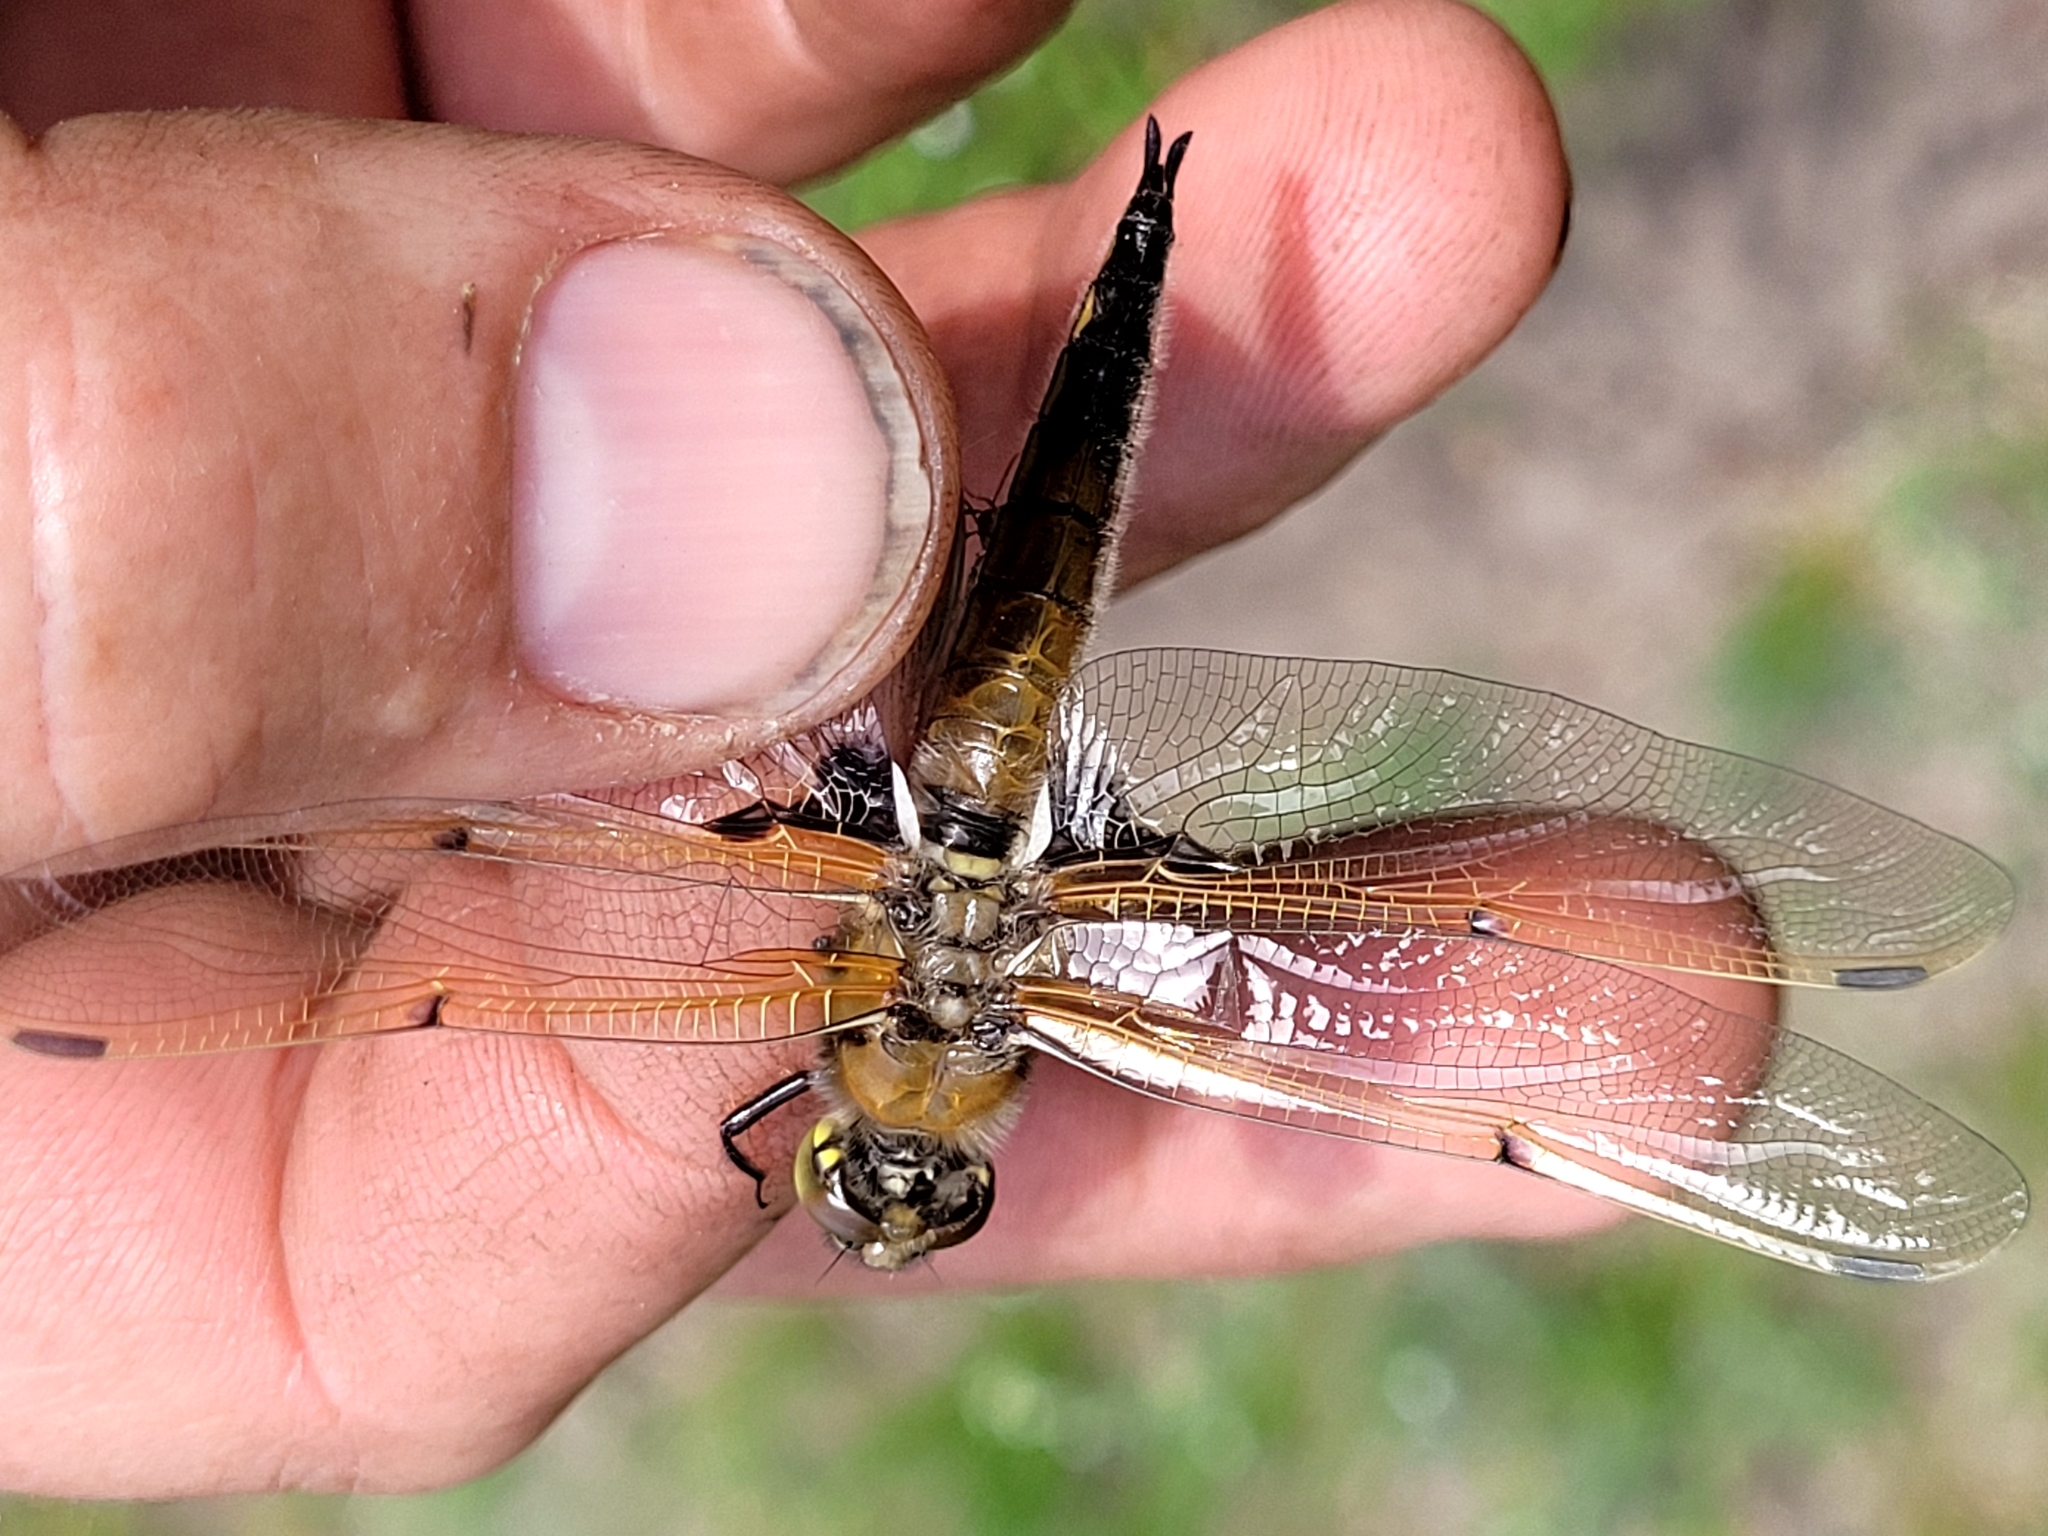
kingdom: Animalia
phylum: Arthropoda
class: Insecta
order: Odonata
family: Libellulidae
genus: Libellula
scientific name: Libellula quadrimaculata
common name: Four-spotted chaser
